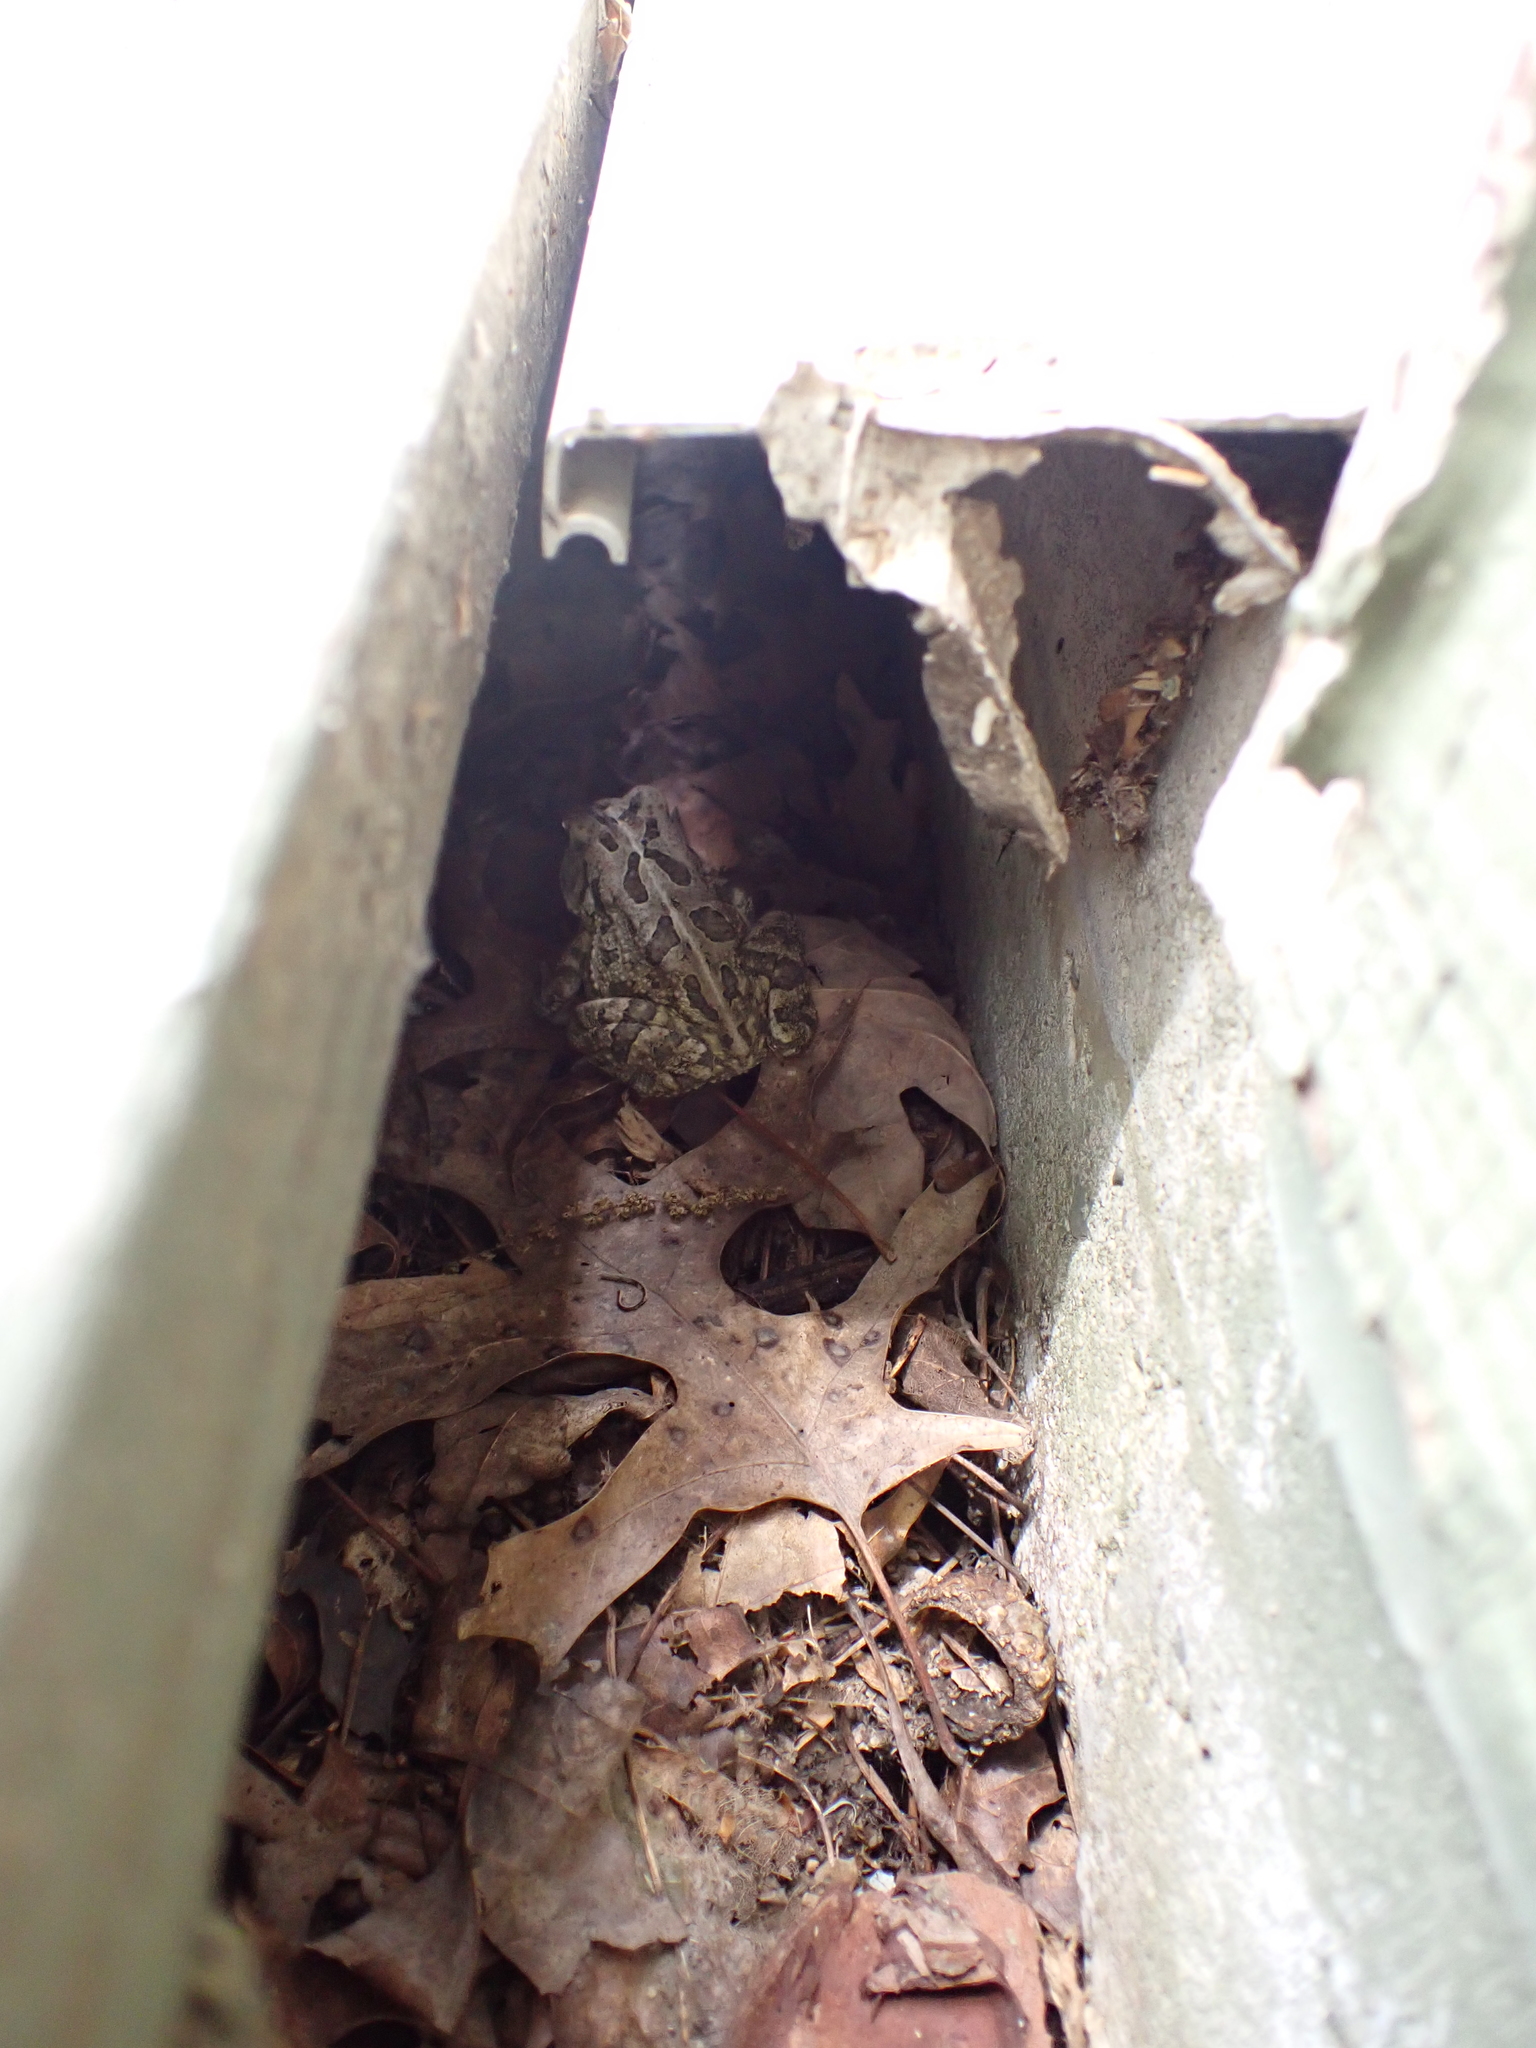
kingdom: Animalia
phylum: Chordata
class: Amphibia
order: Anura
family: Bufonidae
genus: Anaxyrus
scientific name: Anaxyrus fowleri
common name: Fowler's toad
